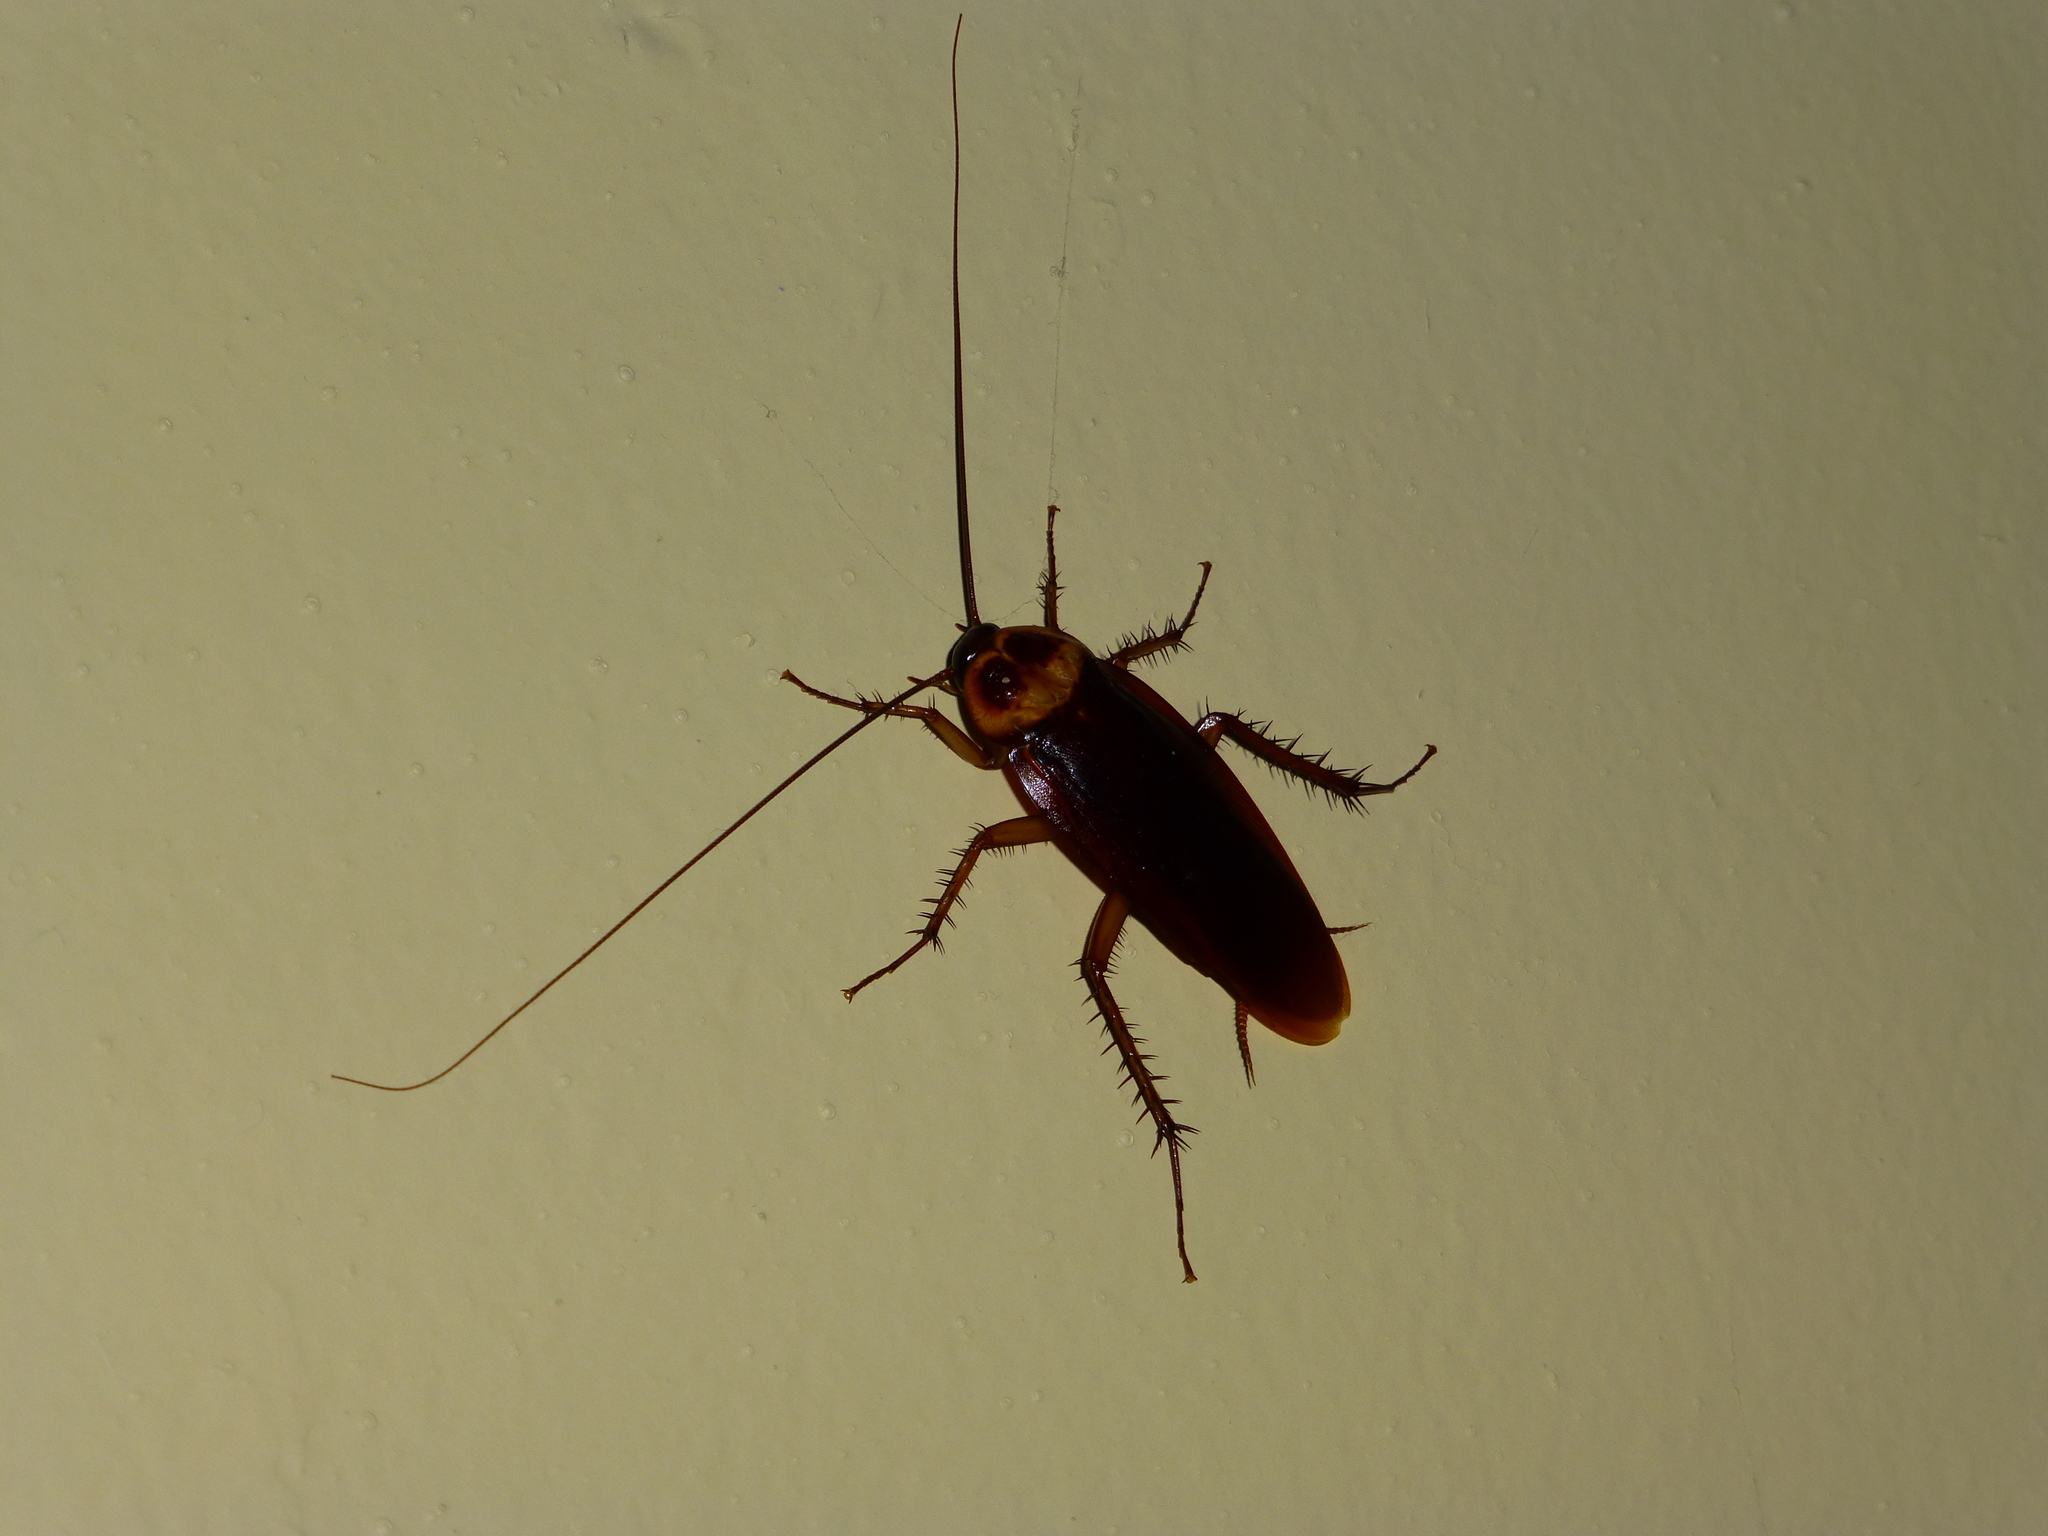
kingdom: Animalia
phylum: Arthropoda
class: Insecta
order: Blattodea
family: Blattidae
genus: Periplaneta
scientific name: Periplaneta americana
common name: American cockroach
